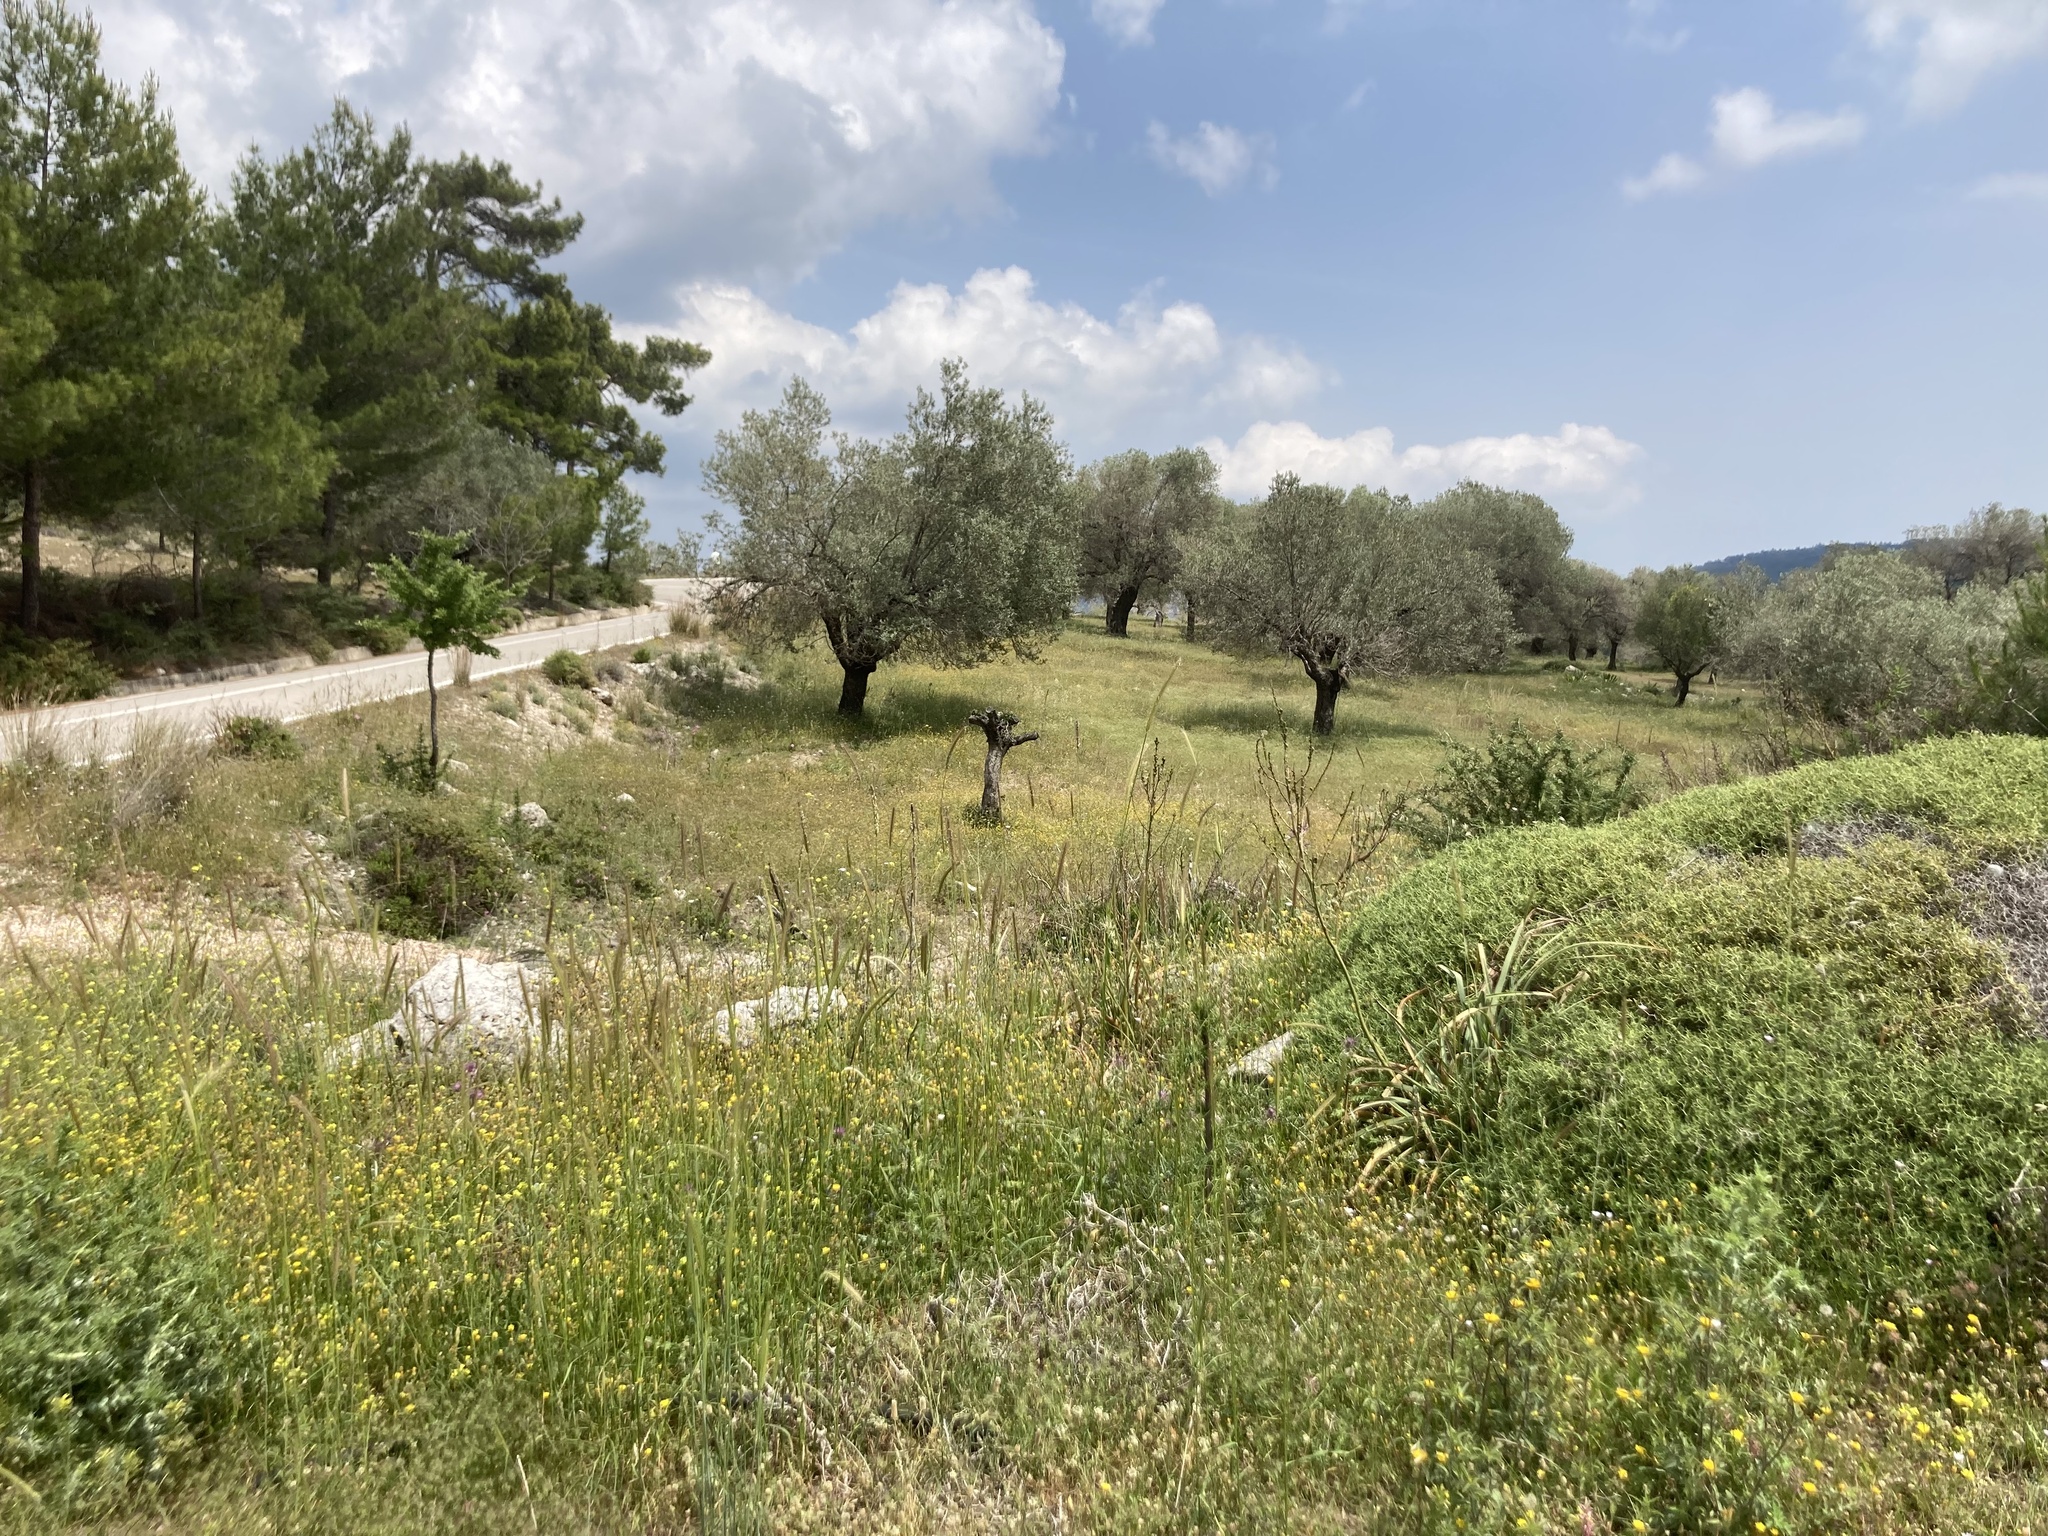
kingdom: Plantae
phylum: Tracheophyta
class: Magnoliopsida
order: Lamiales
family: Oleaceae
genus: Olea
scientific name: Olea europaea
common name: Olive
